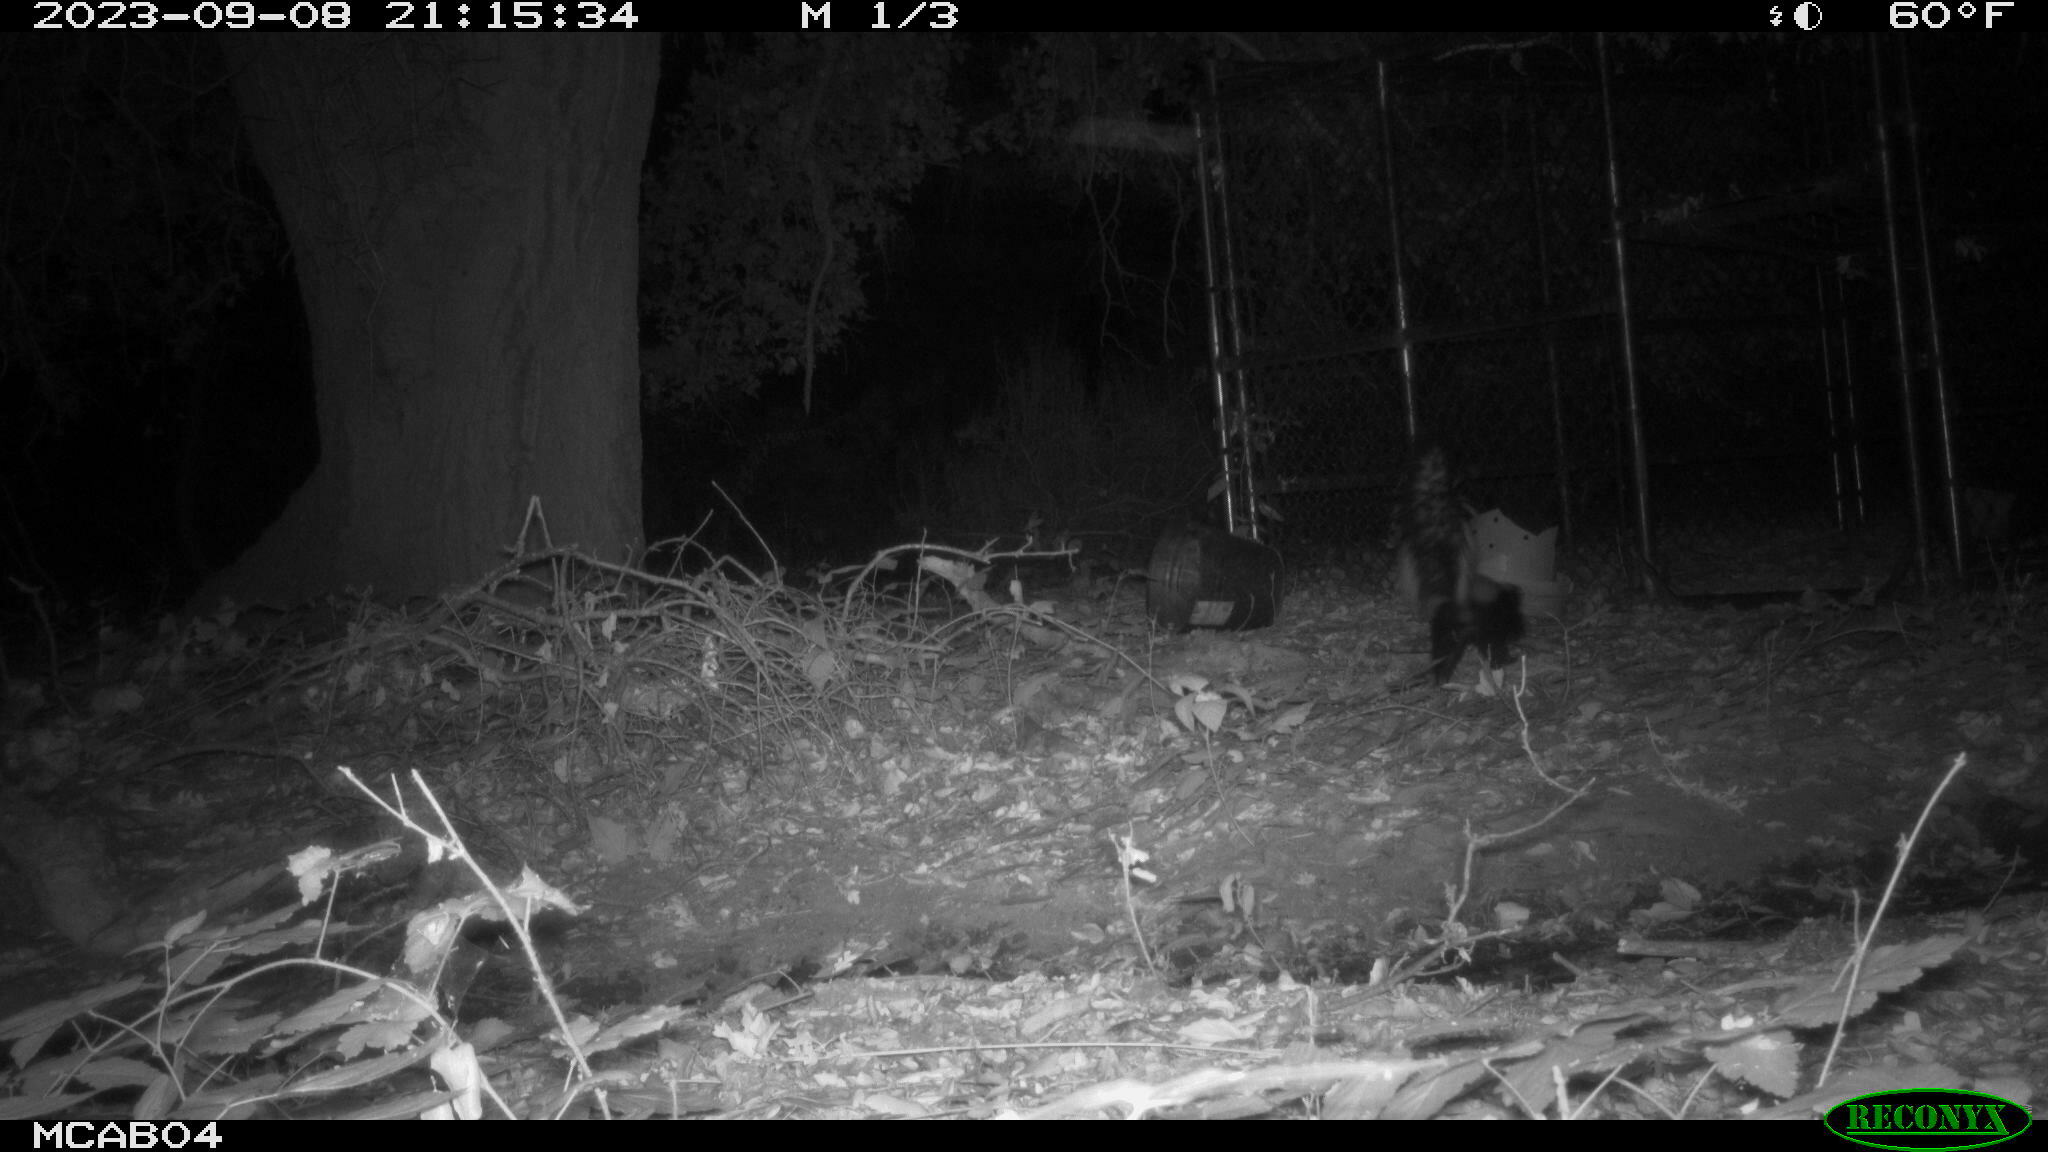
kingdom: Animalia
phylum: Chordata
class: Mammalia
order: Carnivora
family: Mephitidae
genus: Mephitis
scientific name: Mephitis mephitis
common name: Striped skunk
